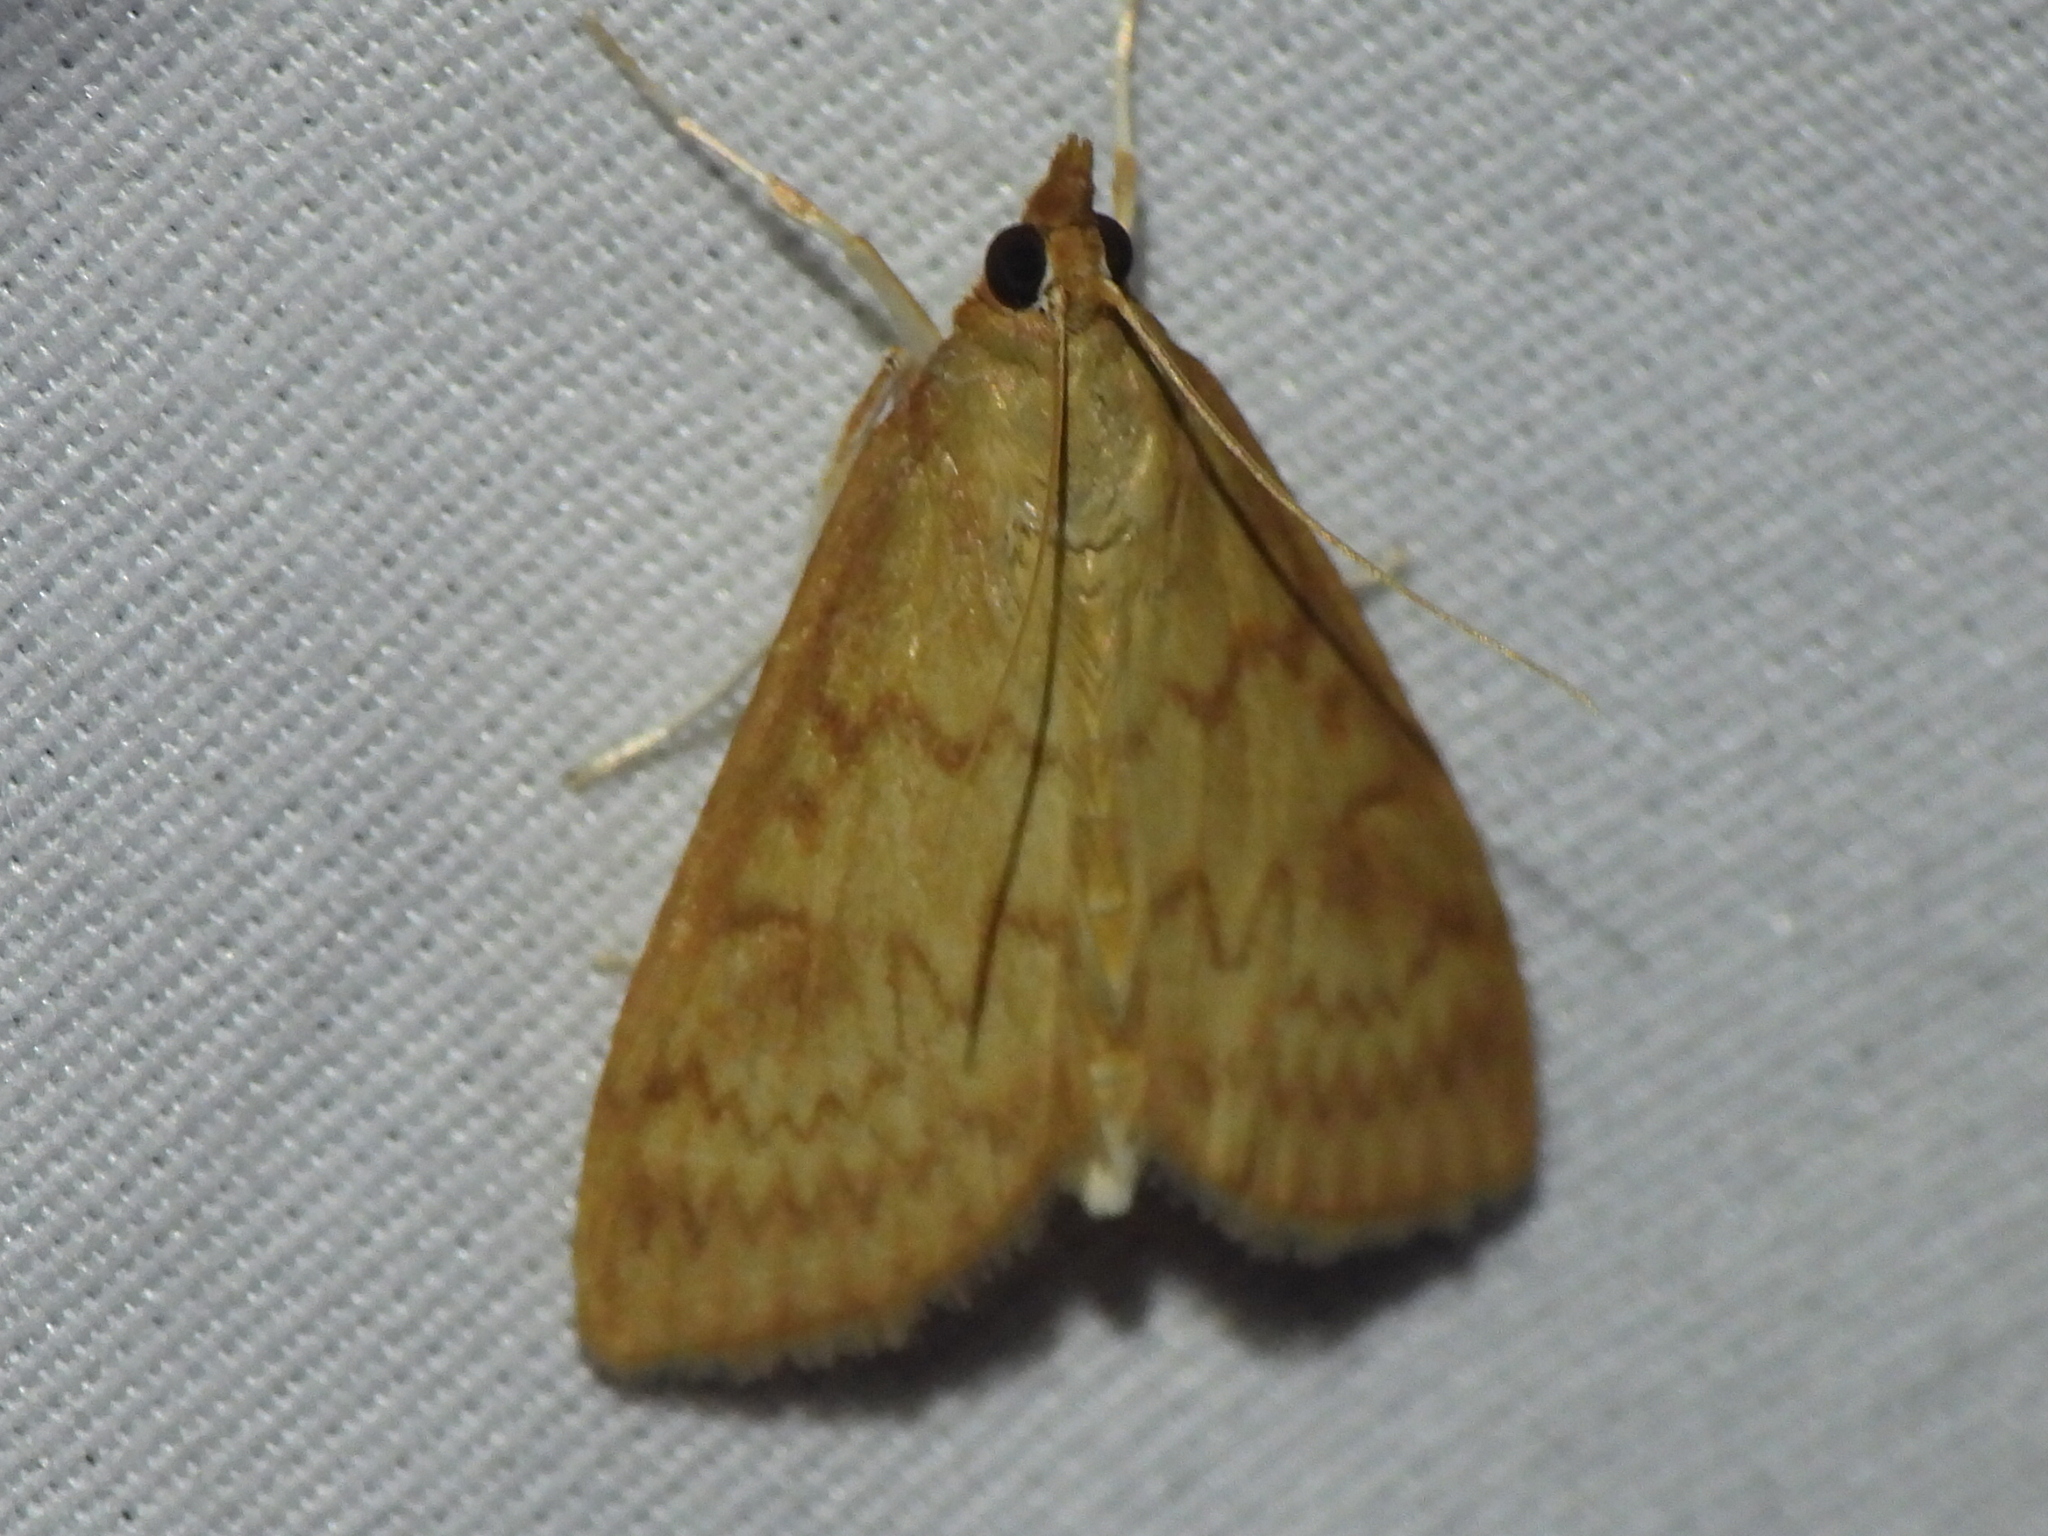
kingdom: Animalia
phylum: Arthropoda
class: Insecta
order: Lepidoptera
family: Crambidae
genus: Ostrinia
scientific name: Ostrinia penitalis
